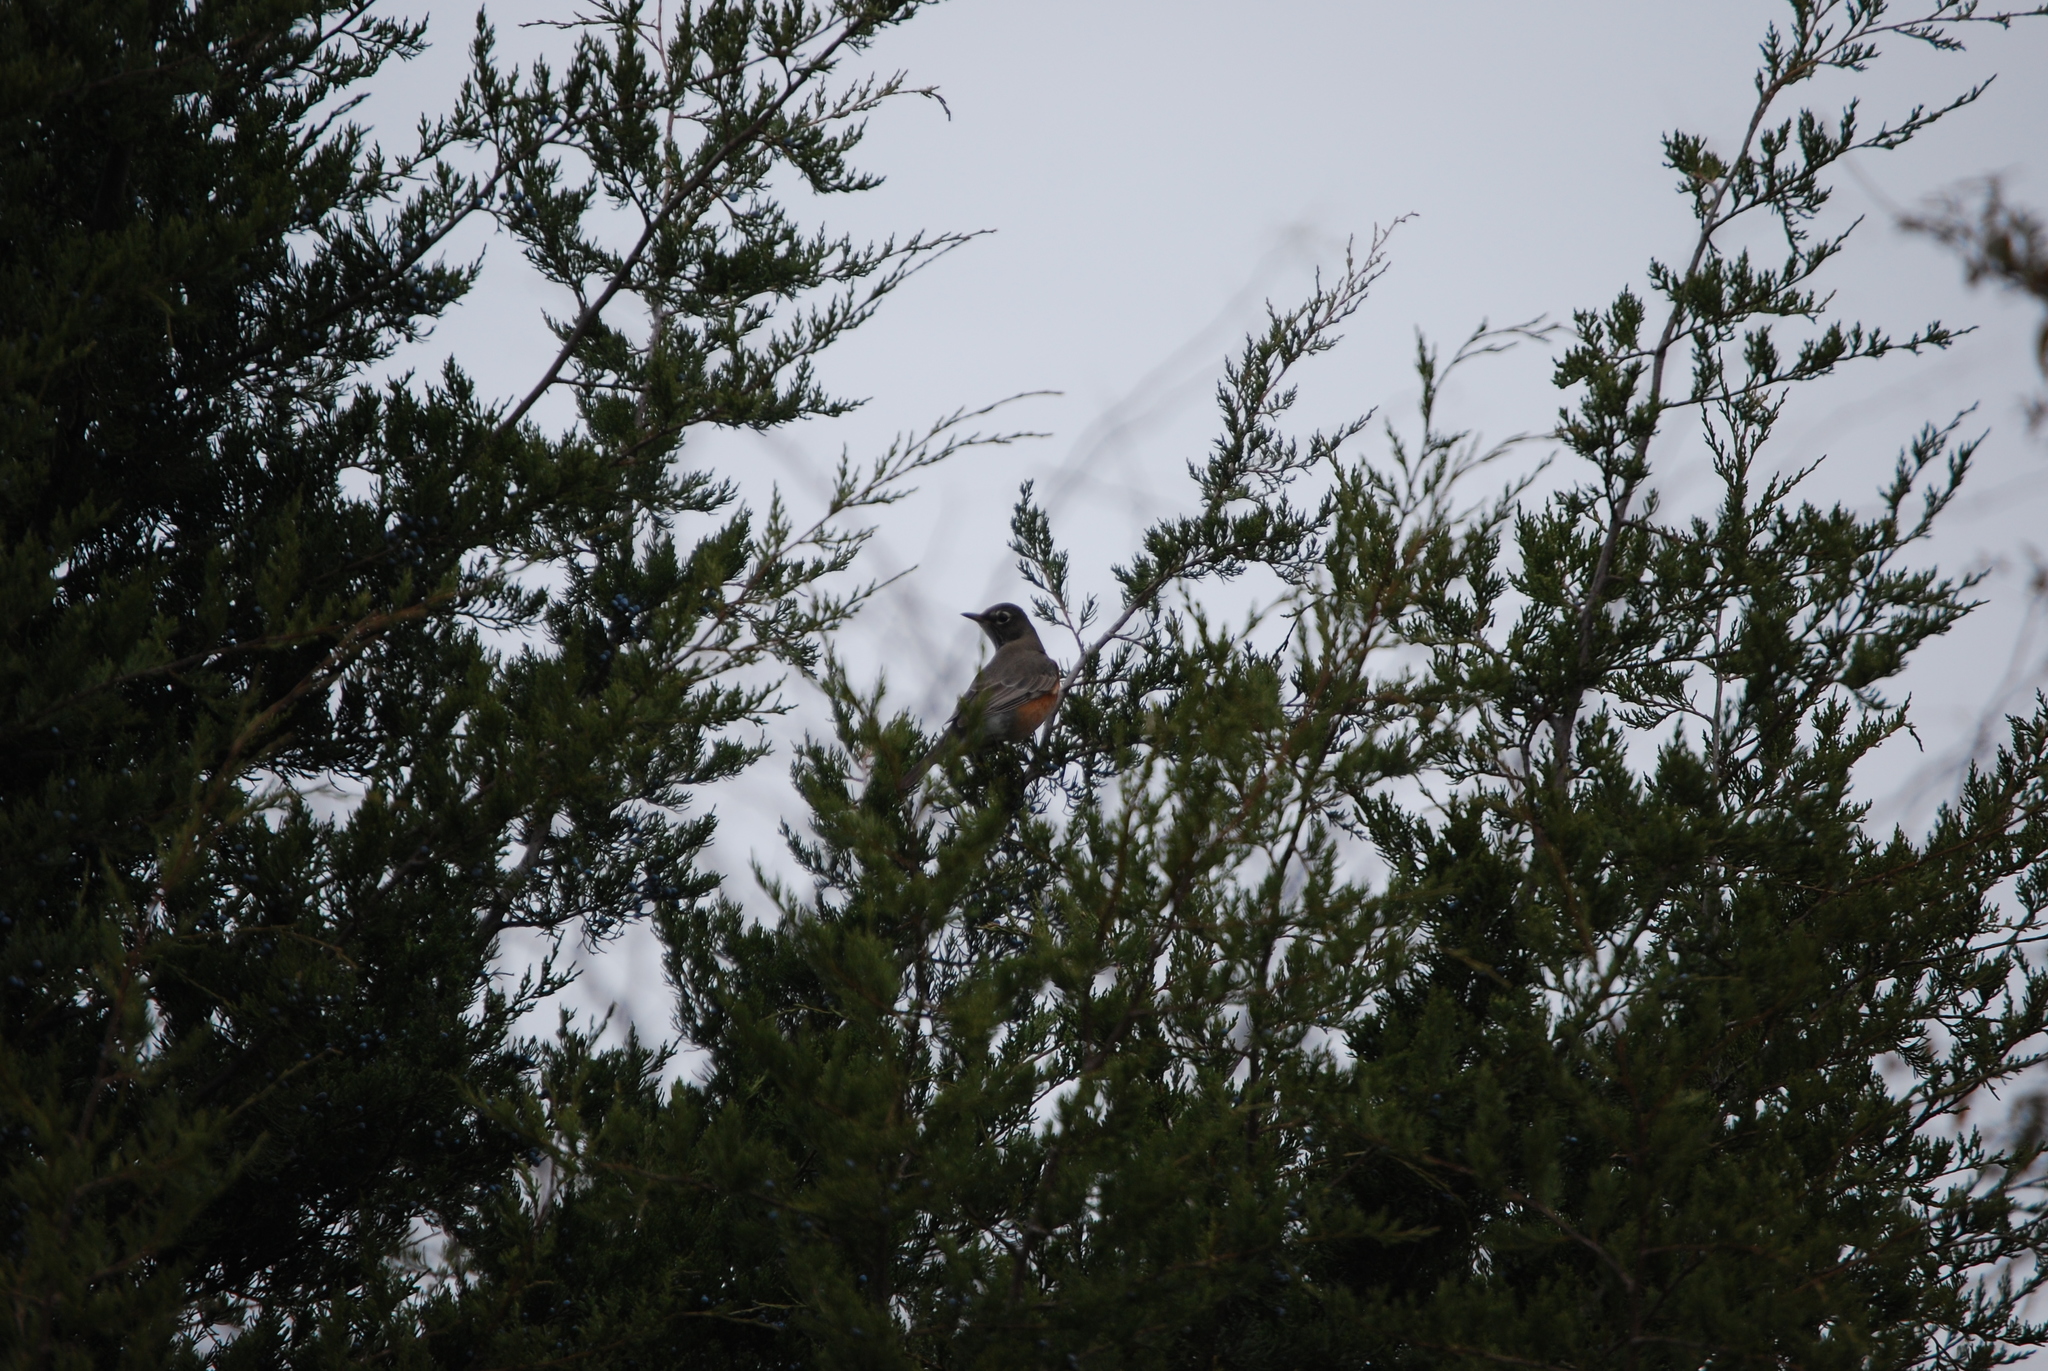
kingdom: Animalia
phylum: Chordata
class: Aves
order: Passeriformes
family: Turdidae
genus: Turdus
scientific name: Turdus migratorius
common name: American robin
